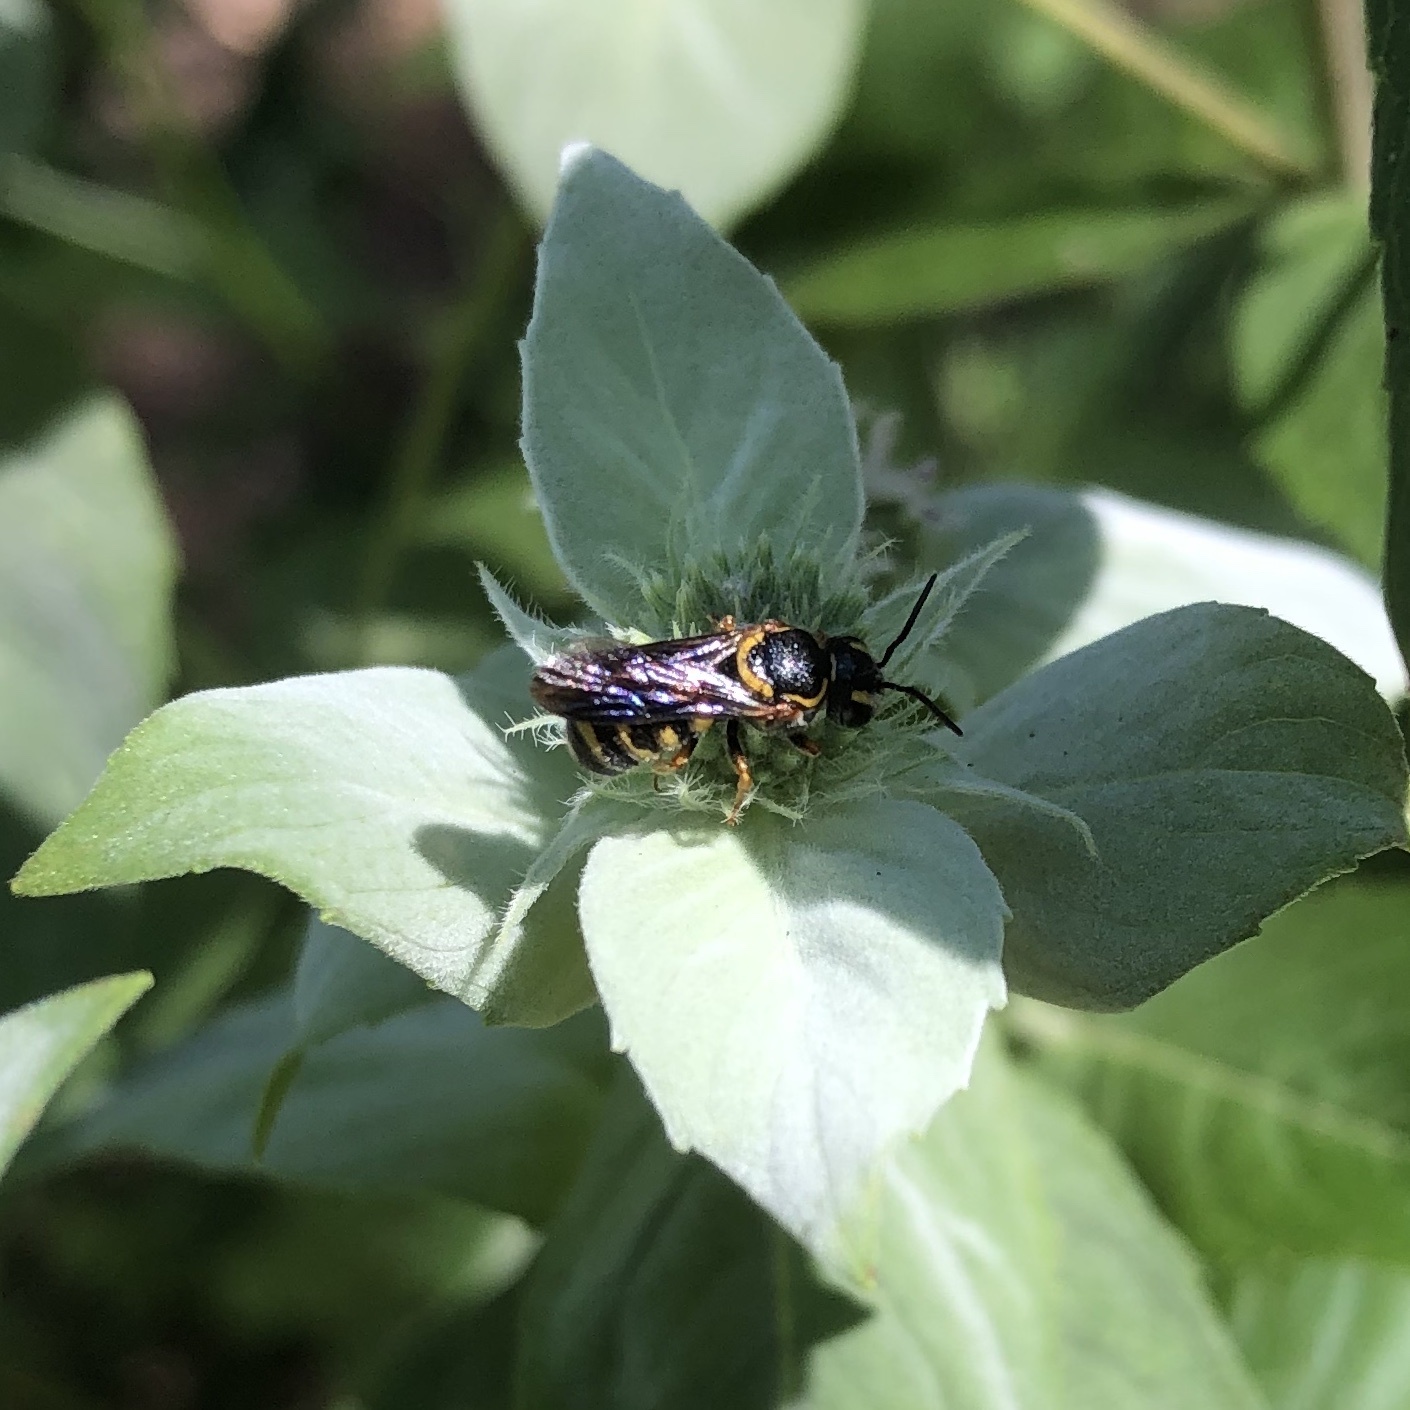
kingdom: Animalia
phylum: Arthropoda
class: Insecta
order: Hymenoptera
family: Megachilidae
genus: Stelis
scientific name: Stelis louisae
